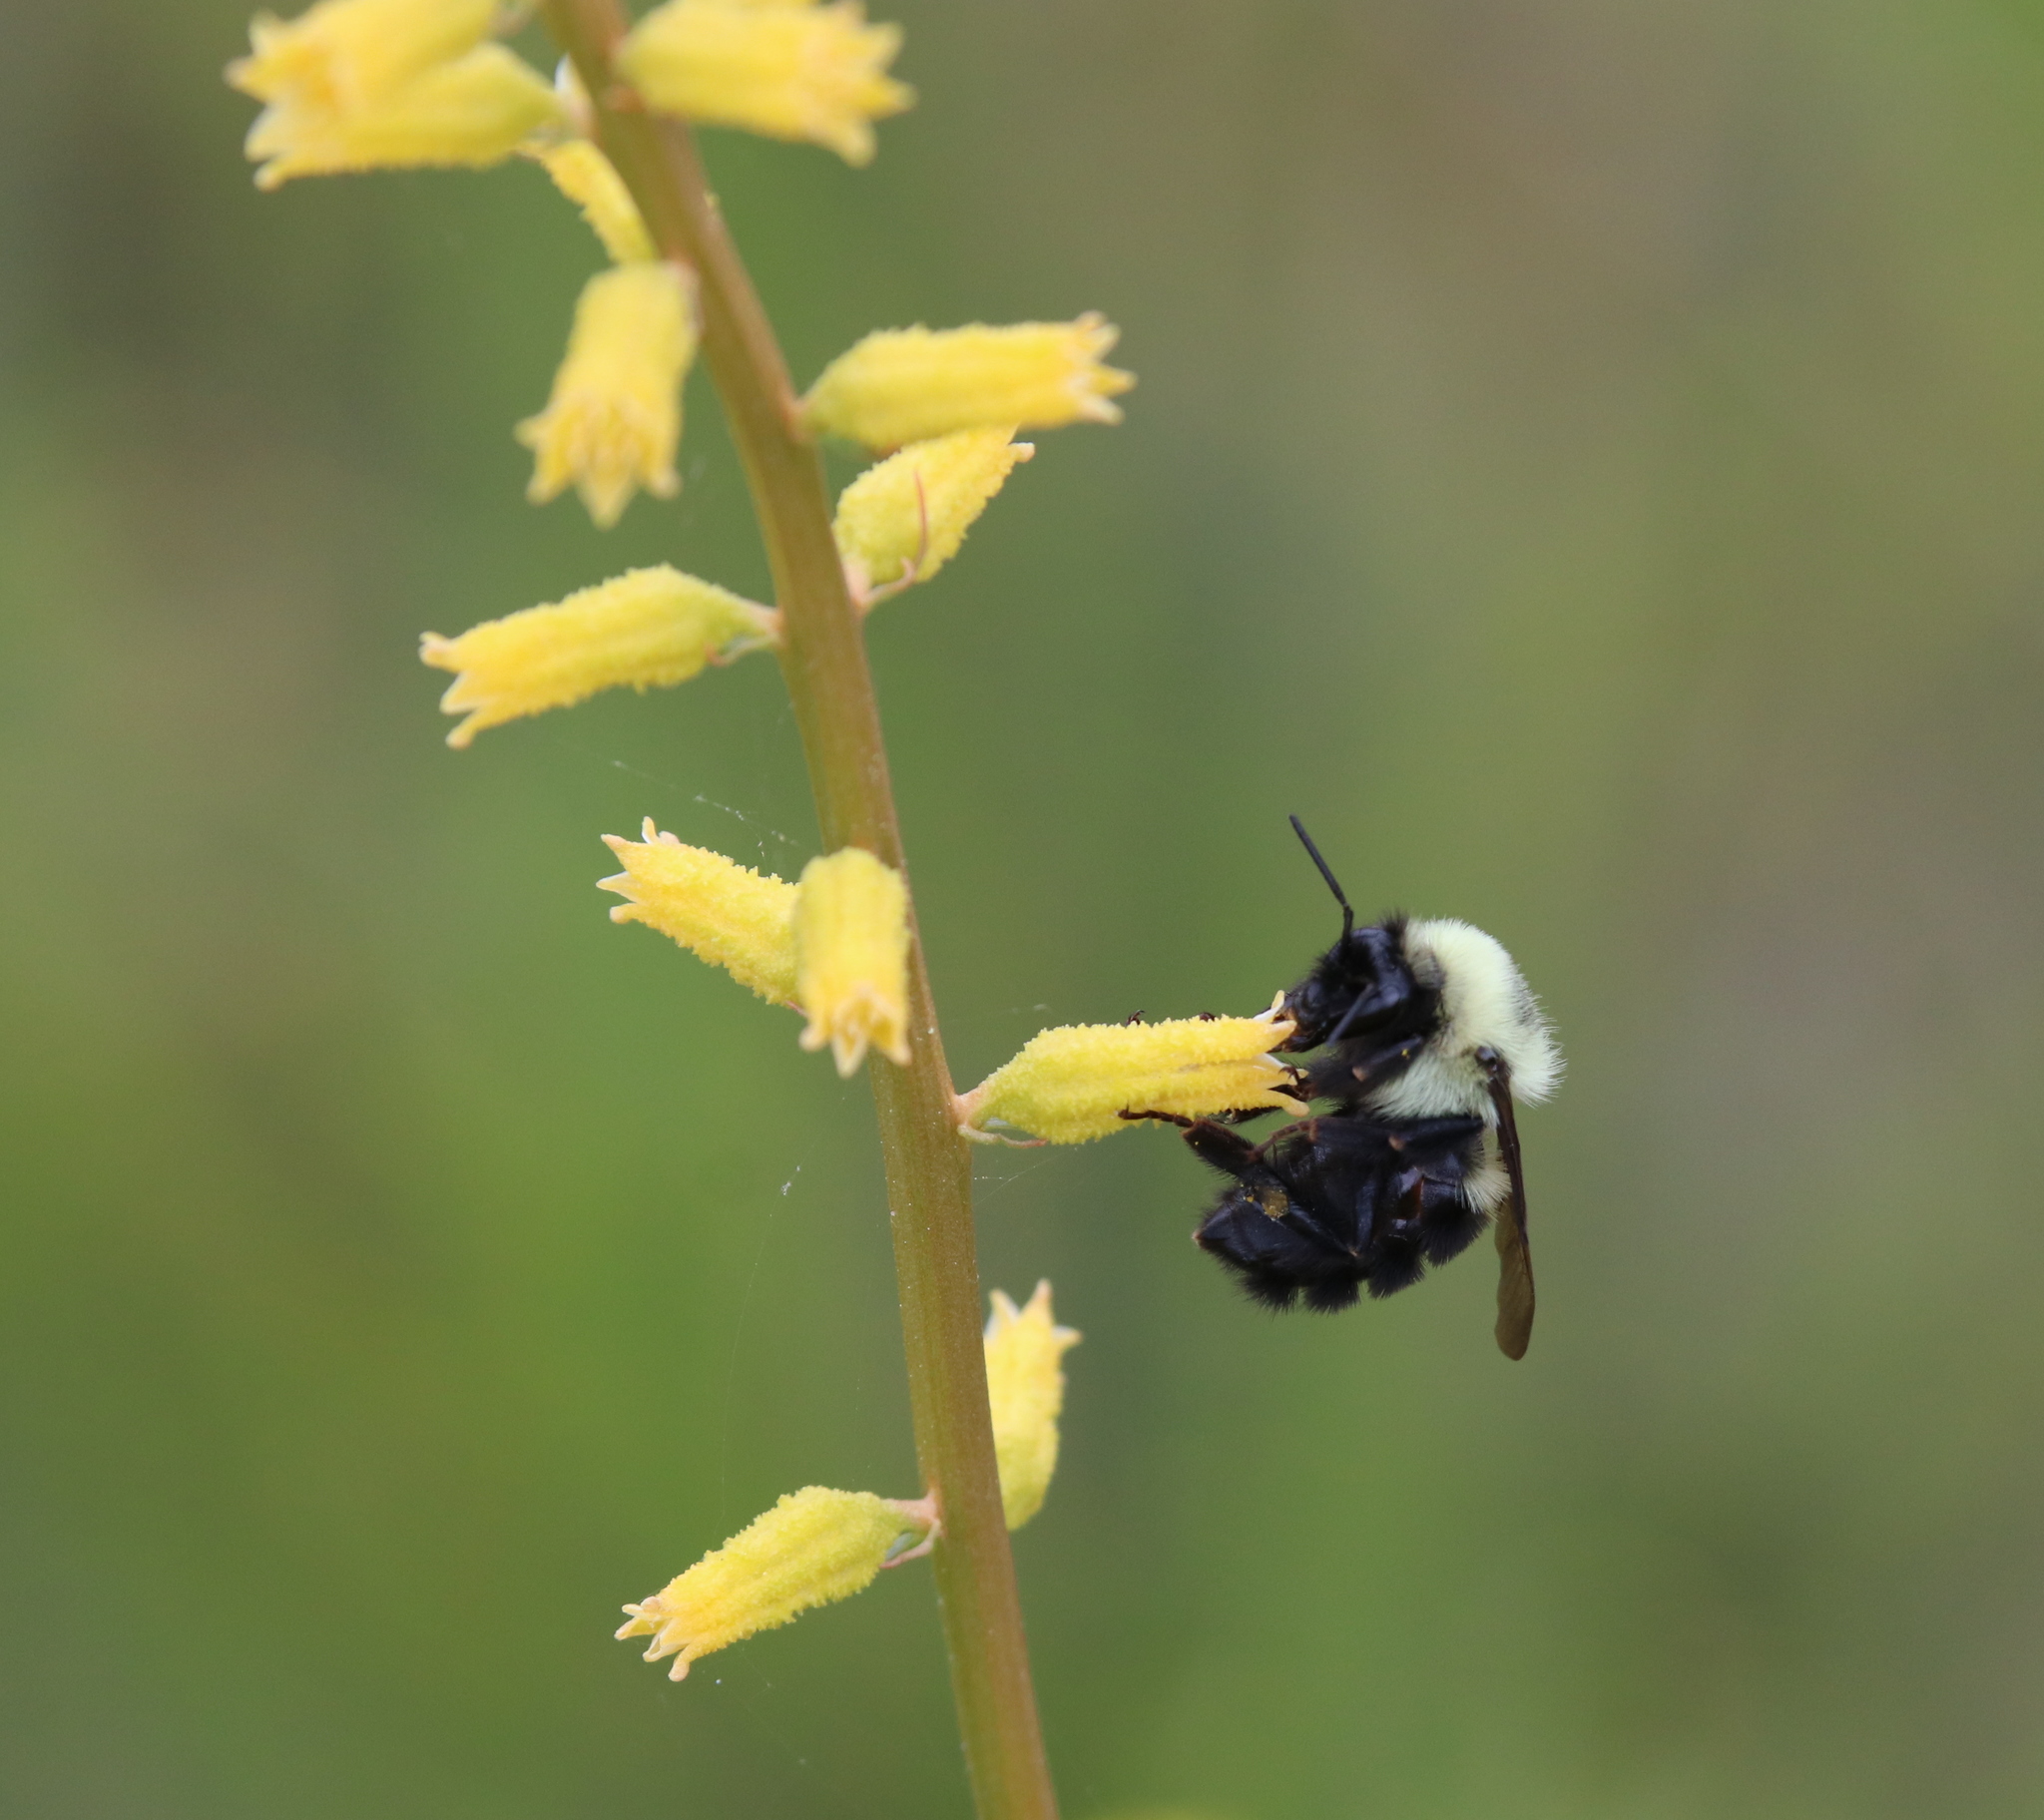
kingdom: Animalia
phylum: Arthropoda
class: Insecta
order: Hymenoptera
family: Apidae
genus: Bombus
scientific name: Bombus bimaculatus
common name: Two-spotted bumble bee
